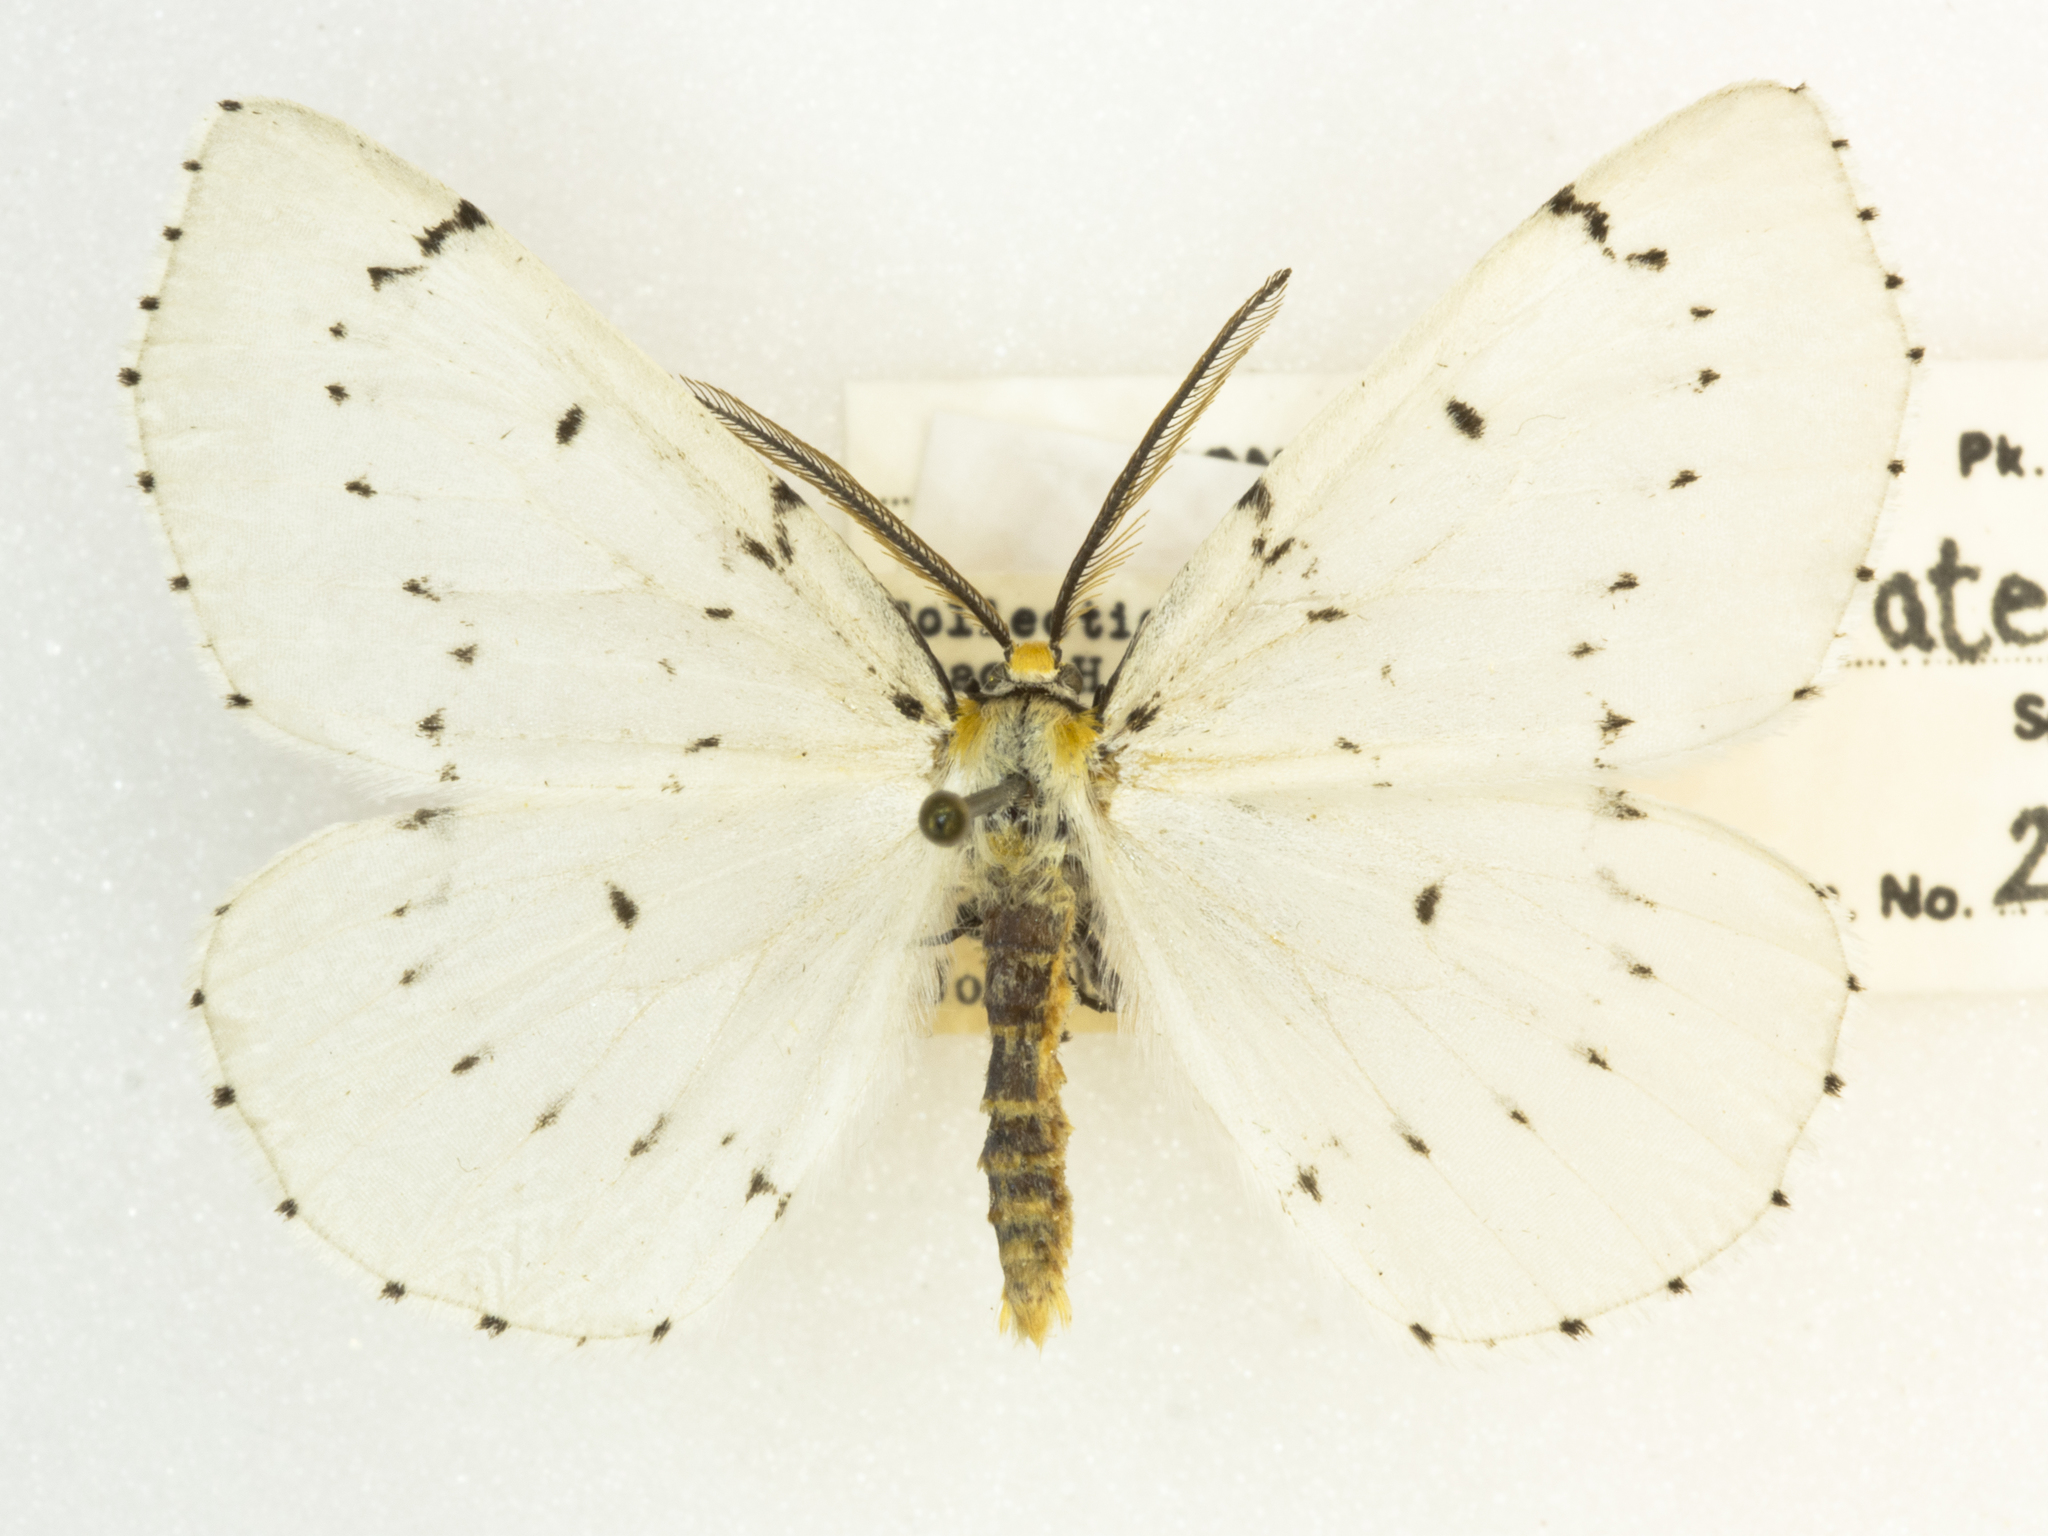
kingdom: Animalia
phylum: Arthropoda
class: Insecta
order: Lepidoptera
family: Geometridae
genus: Cingilia
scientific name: Cingilia catenaria
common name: Chain-dotted geometer
